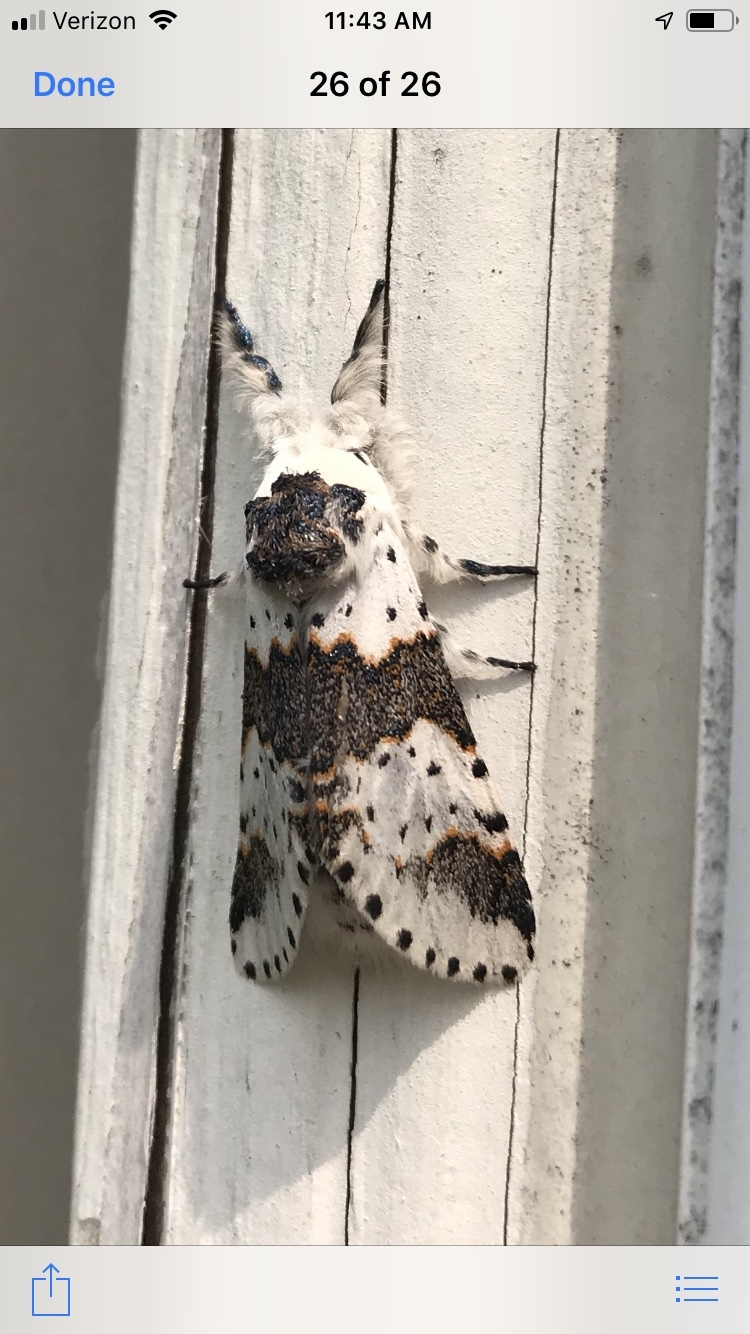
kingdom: Animalia
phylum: Arthropoda
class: Insecta
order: Lepidoptera
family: Notodontidae
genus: Furcula
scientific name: Furcula borealis
